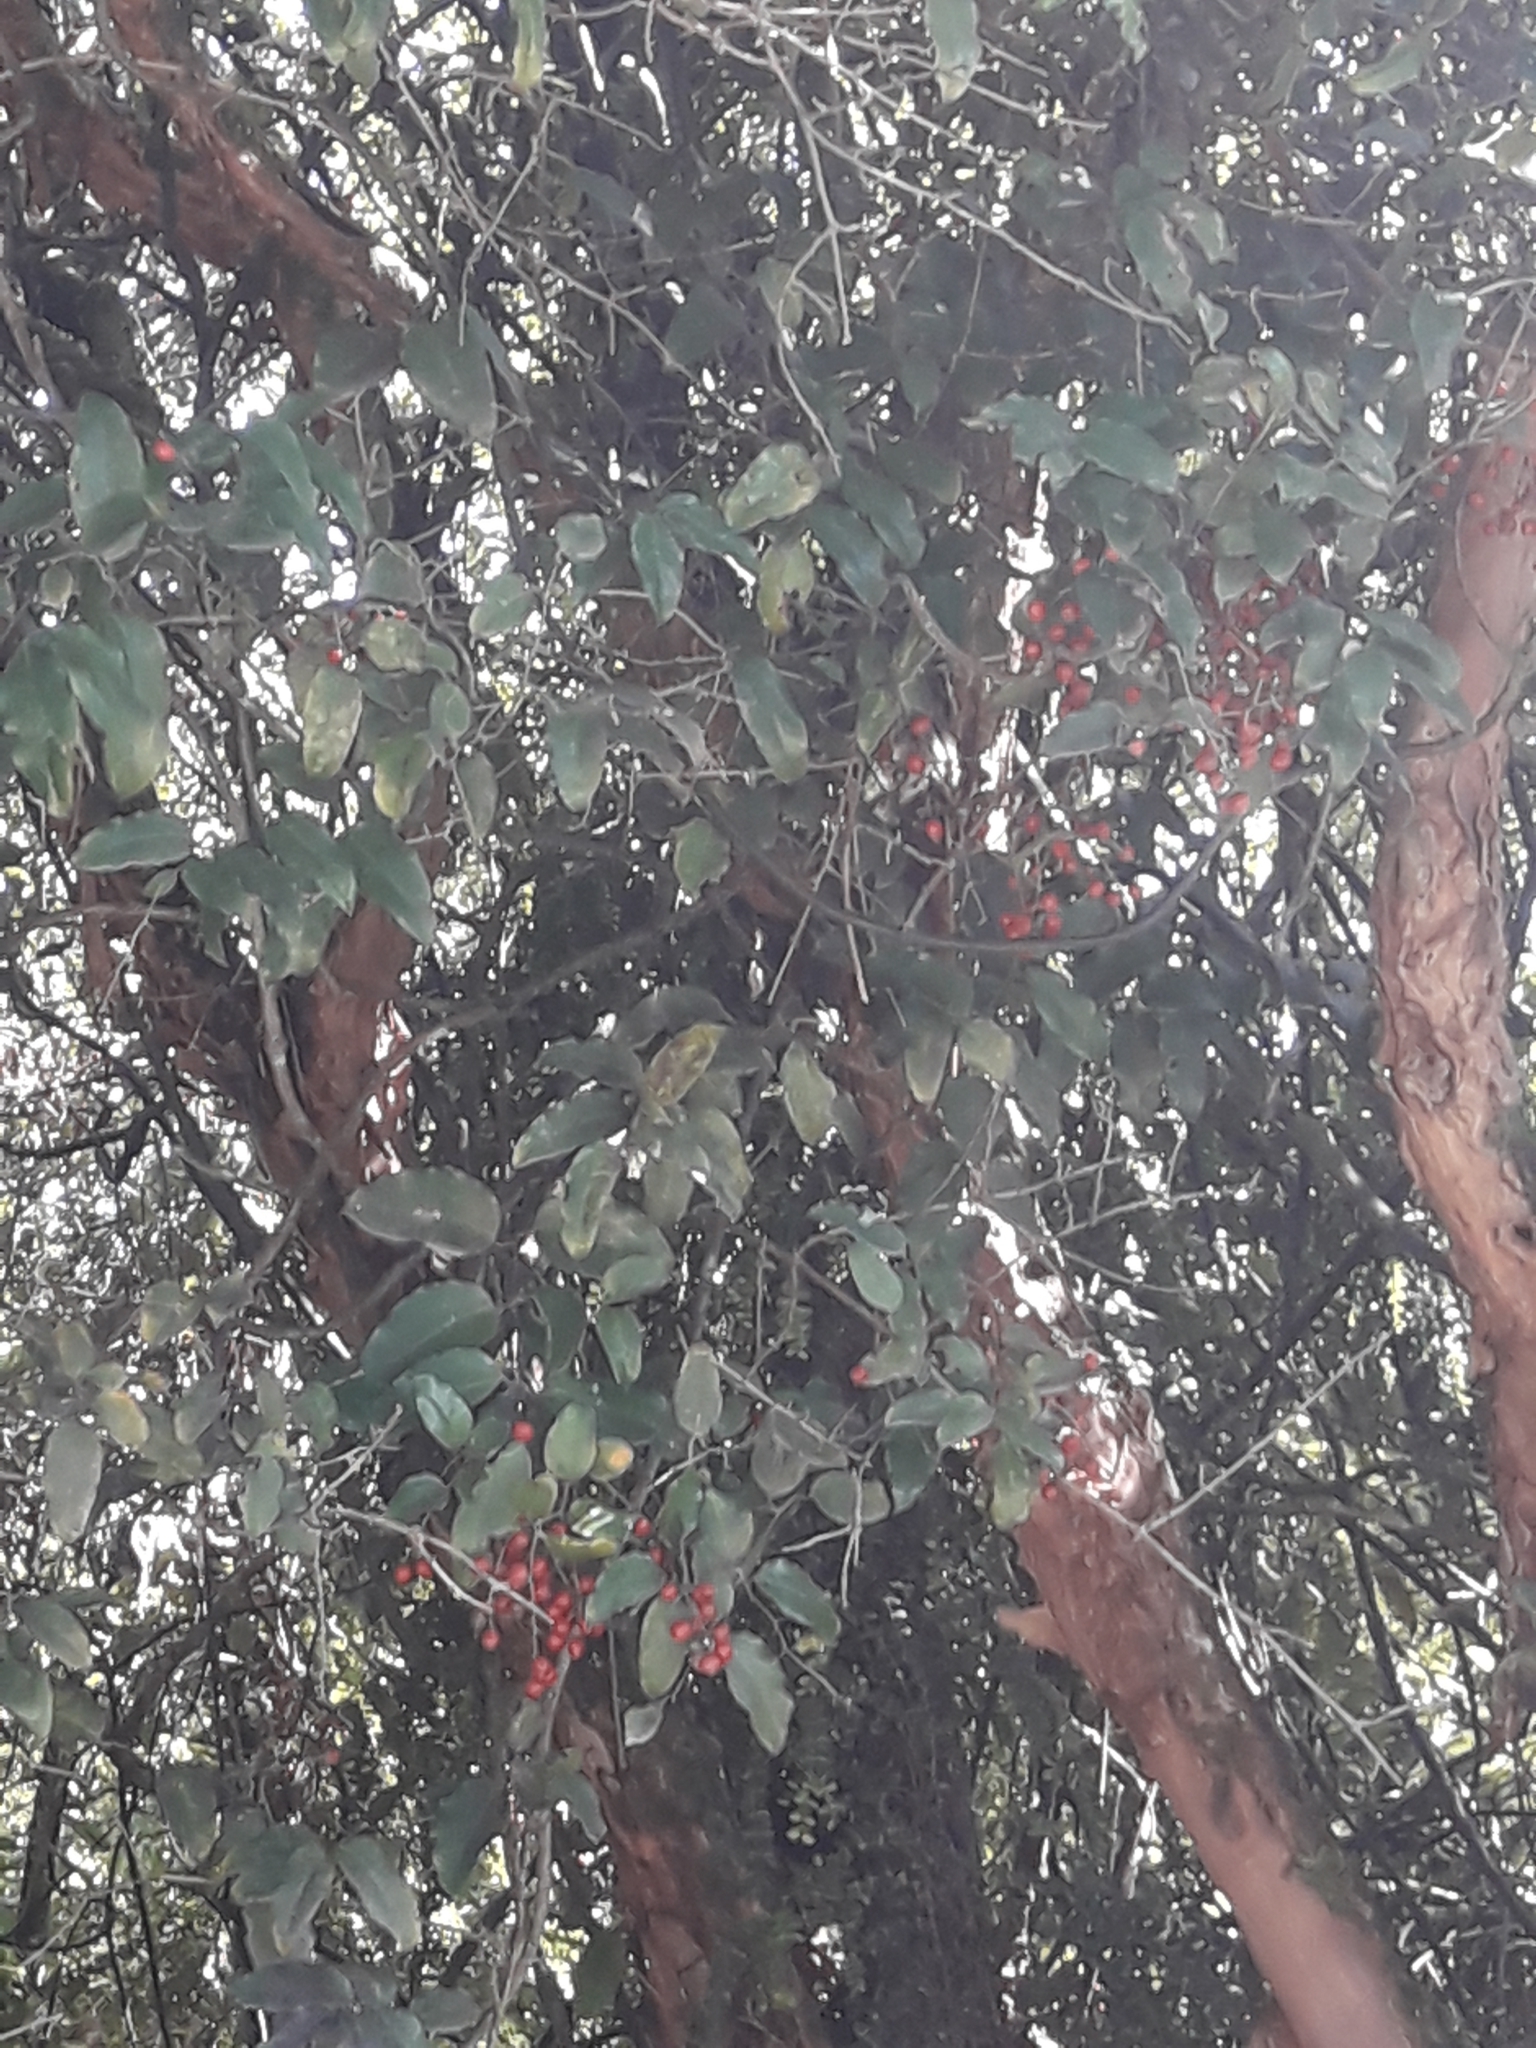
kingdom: Plantae
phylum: Tracheophyta
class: Liliopsida
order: Liliales
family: Ripogonaceae
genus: Ripogonum
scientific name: Ripogonum scandens
